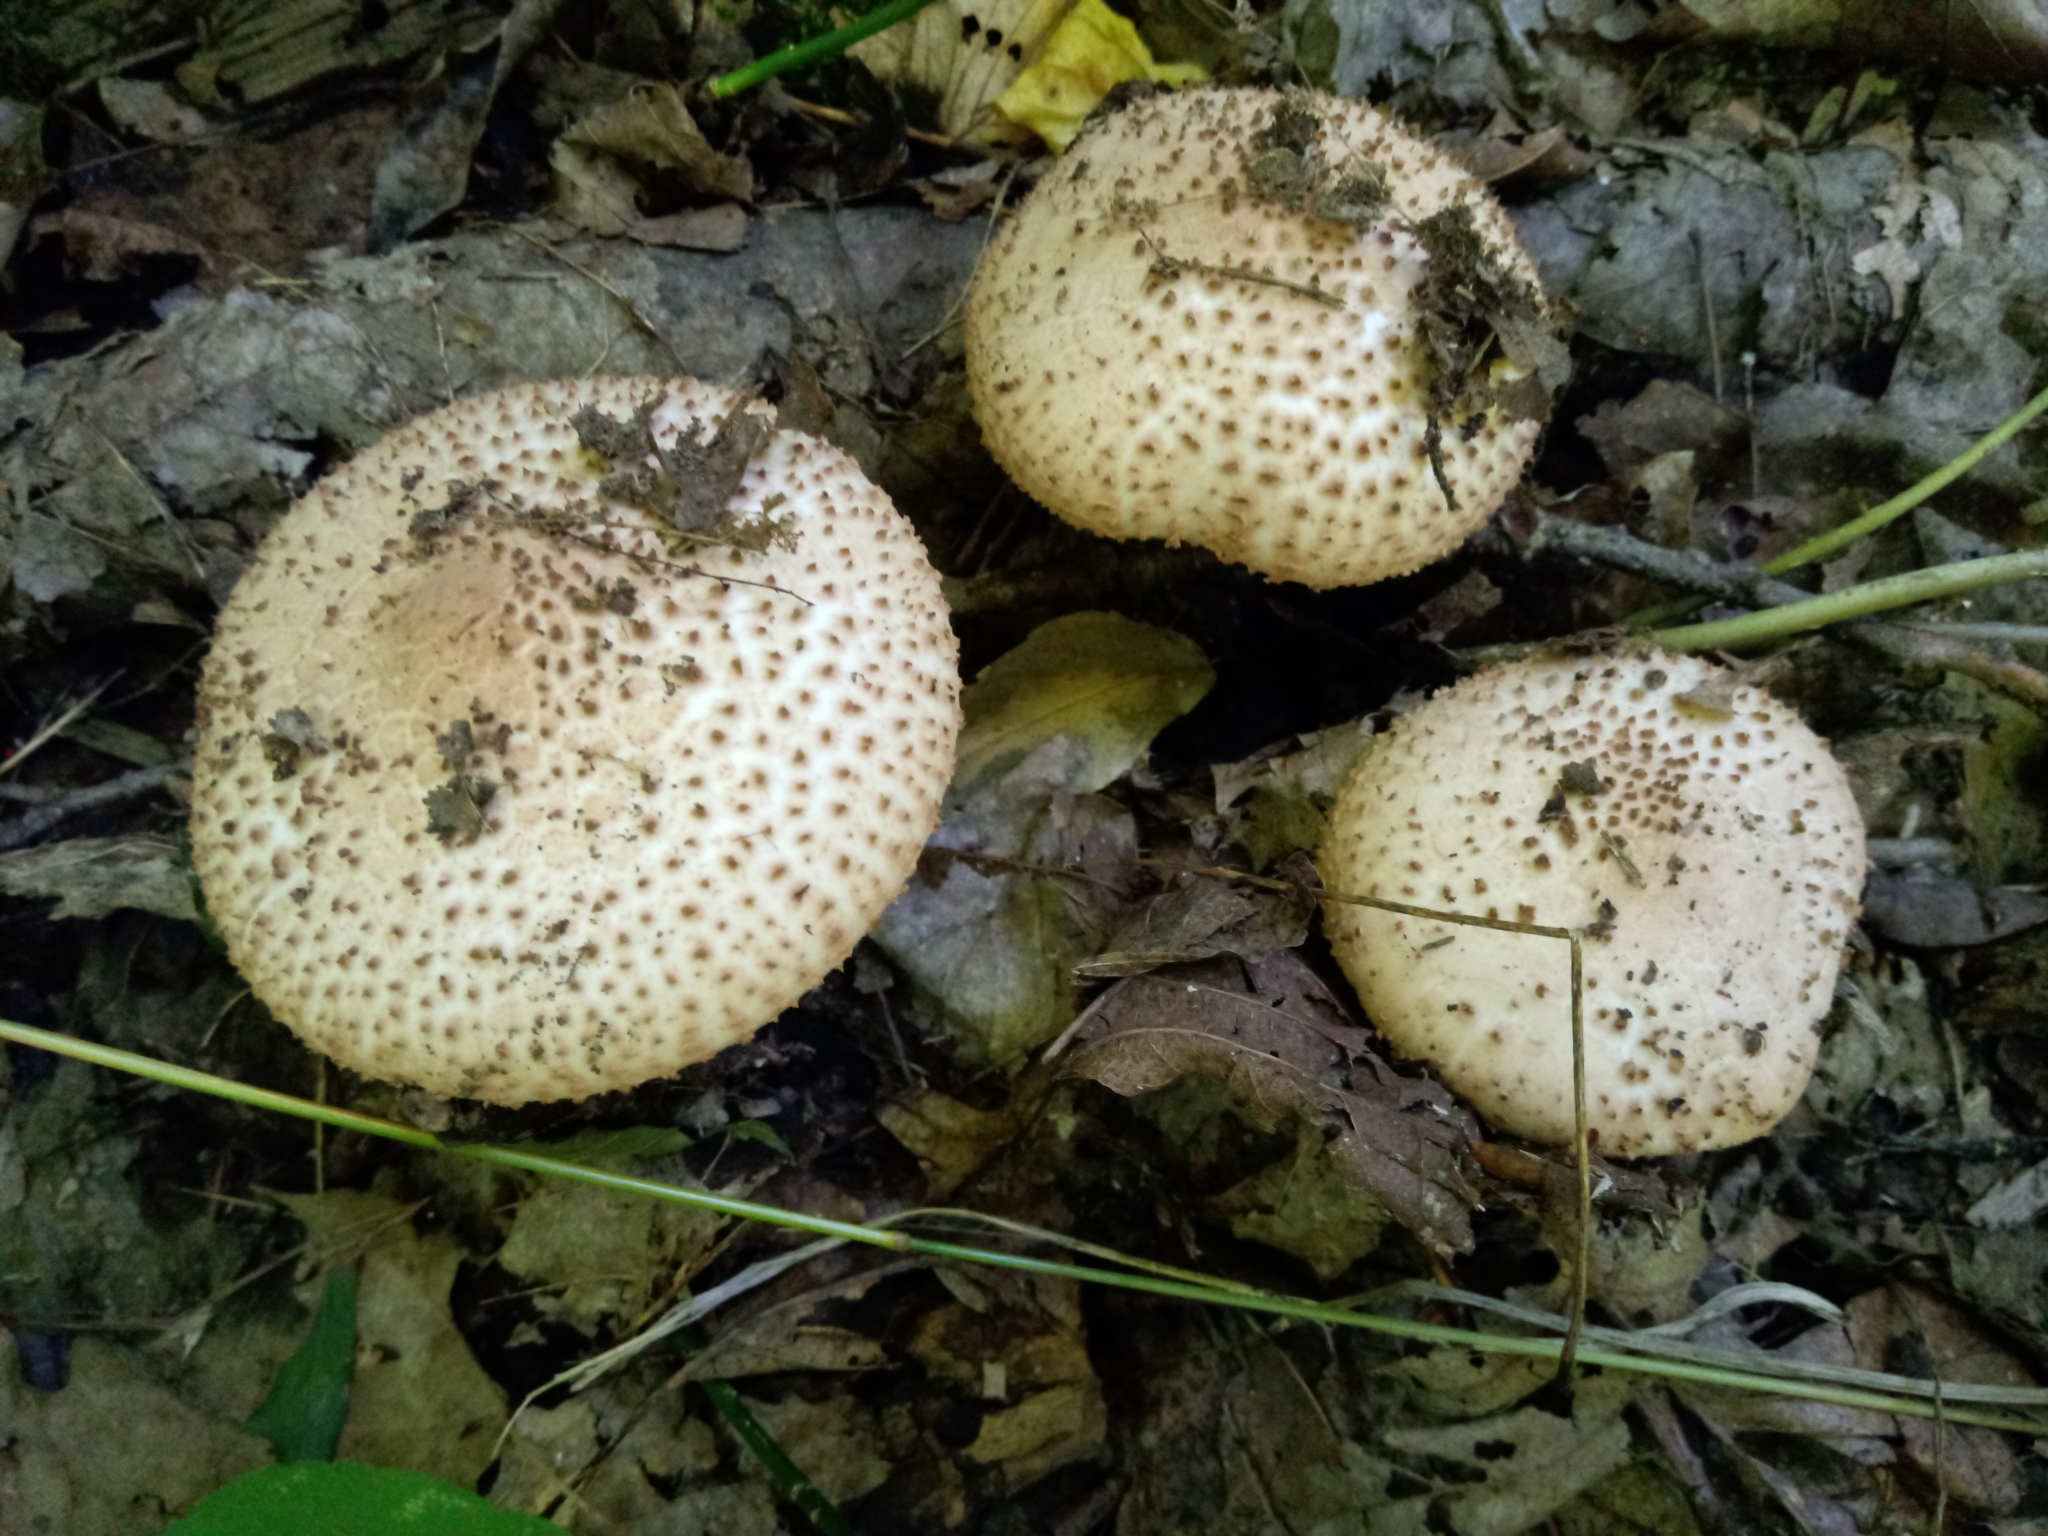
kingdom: Fungi
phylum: Basidiomycota
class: Agaricomycetes
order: Agaricales
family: Agaricaceae
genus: Echinoderma
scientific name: Echinoderma asperum
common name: Freckled dapperling
